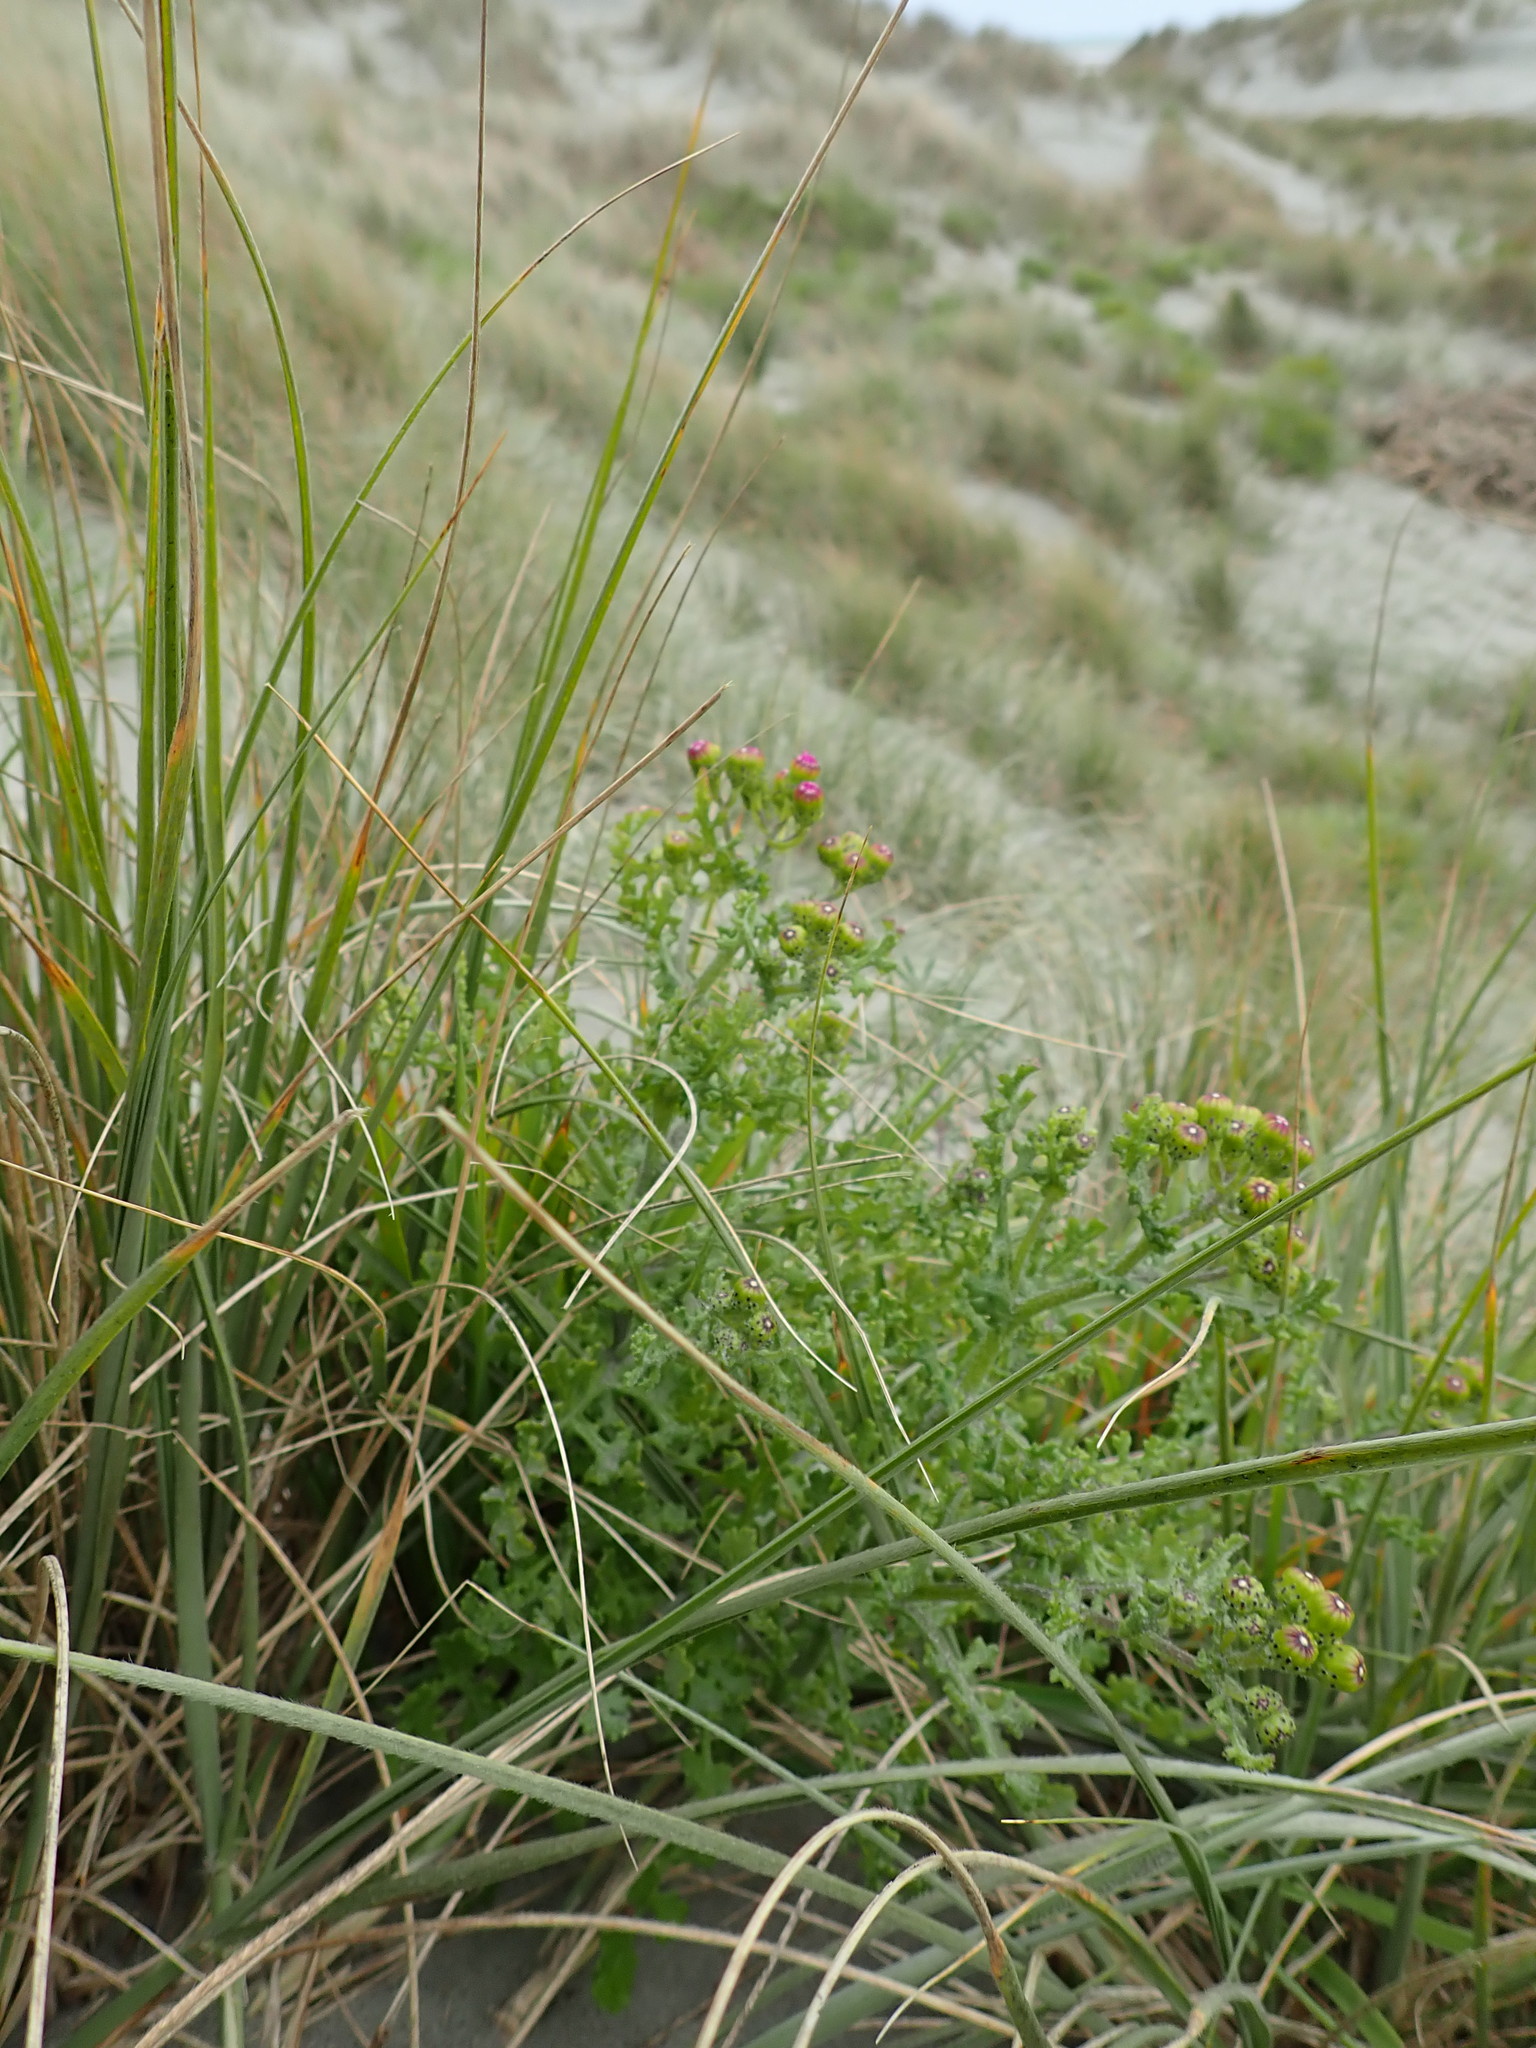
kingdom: Plantae
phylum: Tracheophyta
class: Magnoliopsida
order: Asterales
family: Asteraceae
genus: Senecio
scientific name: Senecio elegans
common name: Purple groundsel
